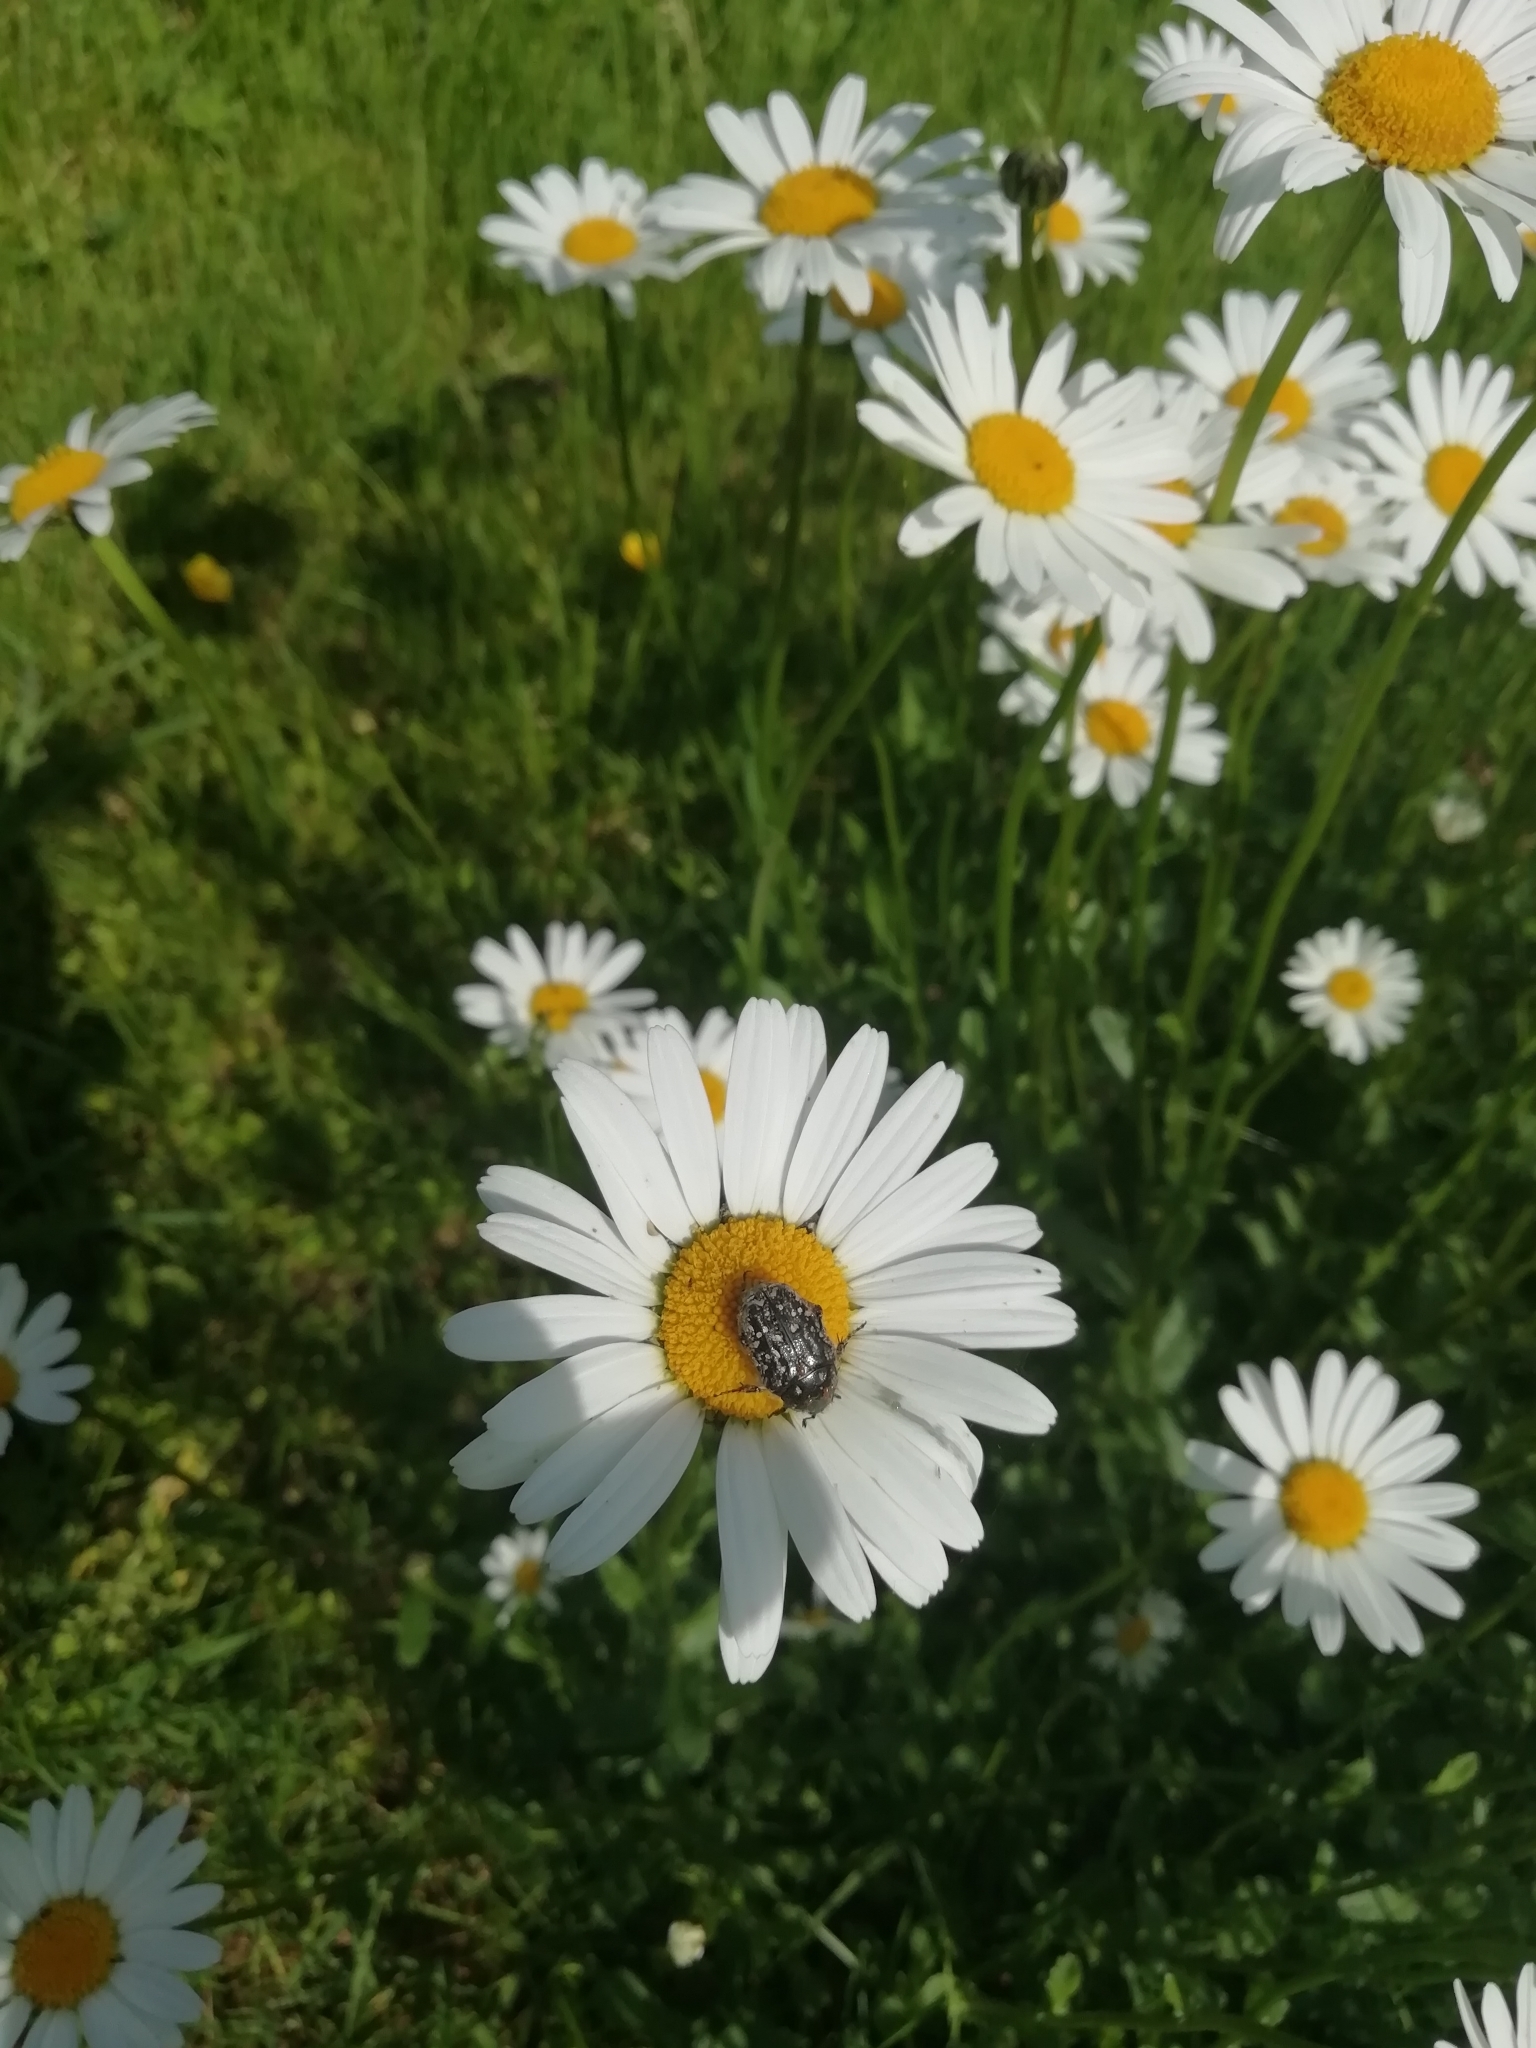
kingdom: Animalia
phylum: Arthropoda
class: Insecta
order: Coleoptera
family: Scarabaeidae
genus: Oxythyrea
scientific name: Oxythyrea funesta
